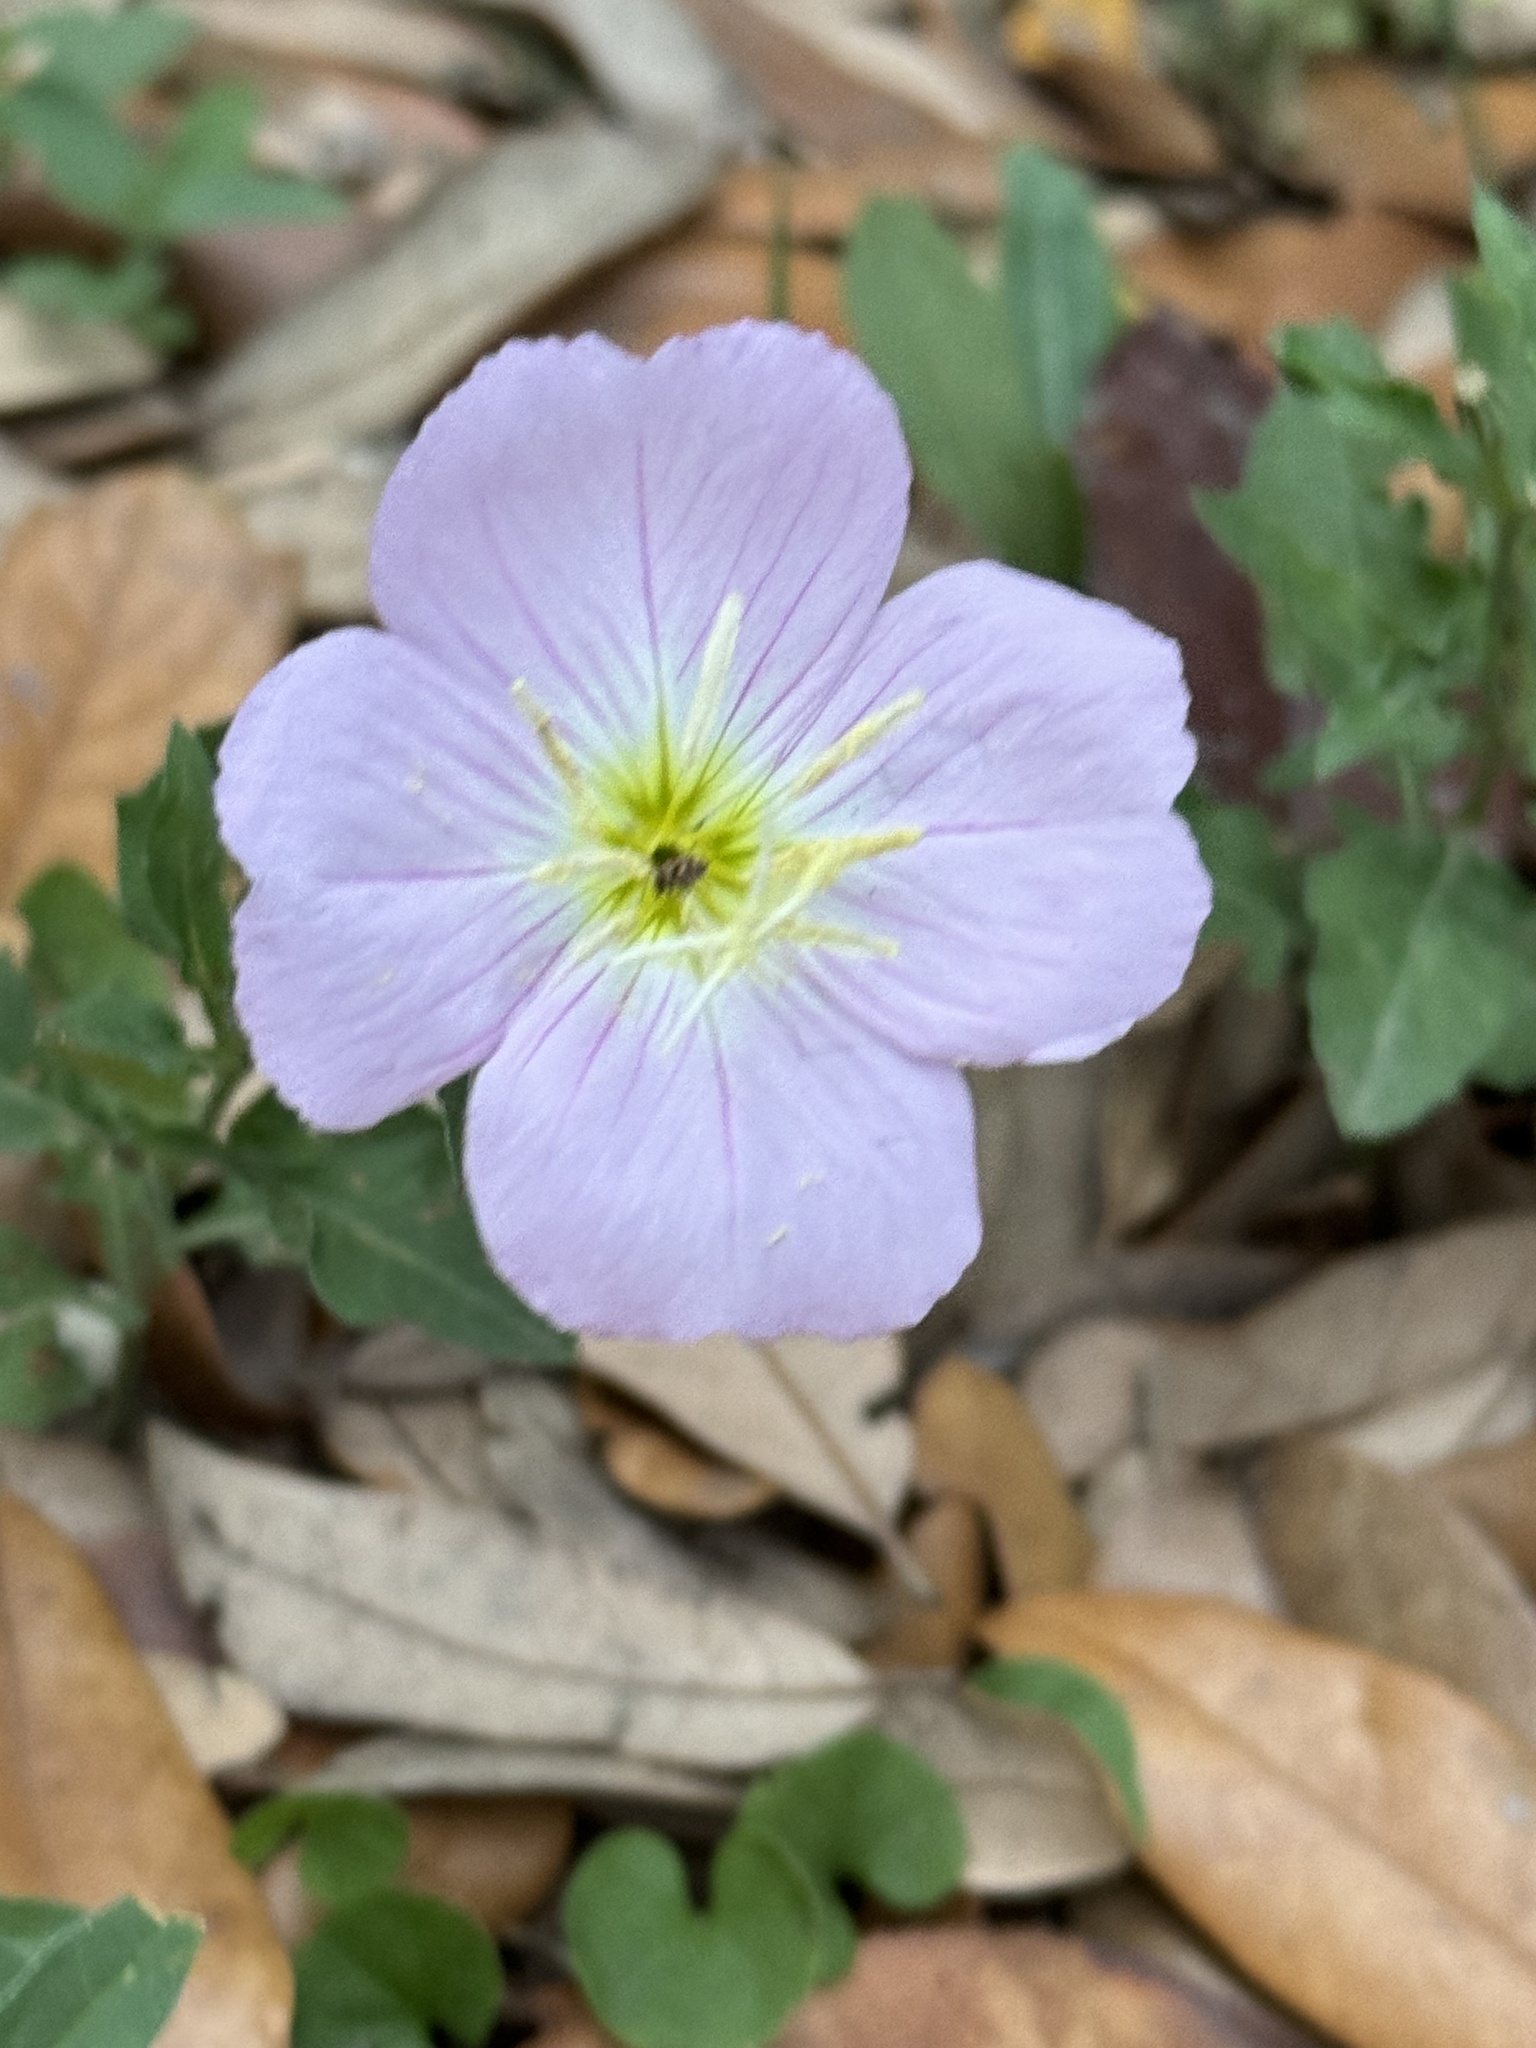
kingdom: Plantae
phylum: Tracheophyta
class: Magnoliopsida
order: Myrtales
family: Onagraceae
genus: Oenothera
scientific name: Oenothera speciosa
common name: White evening-primrose
